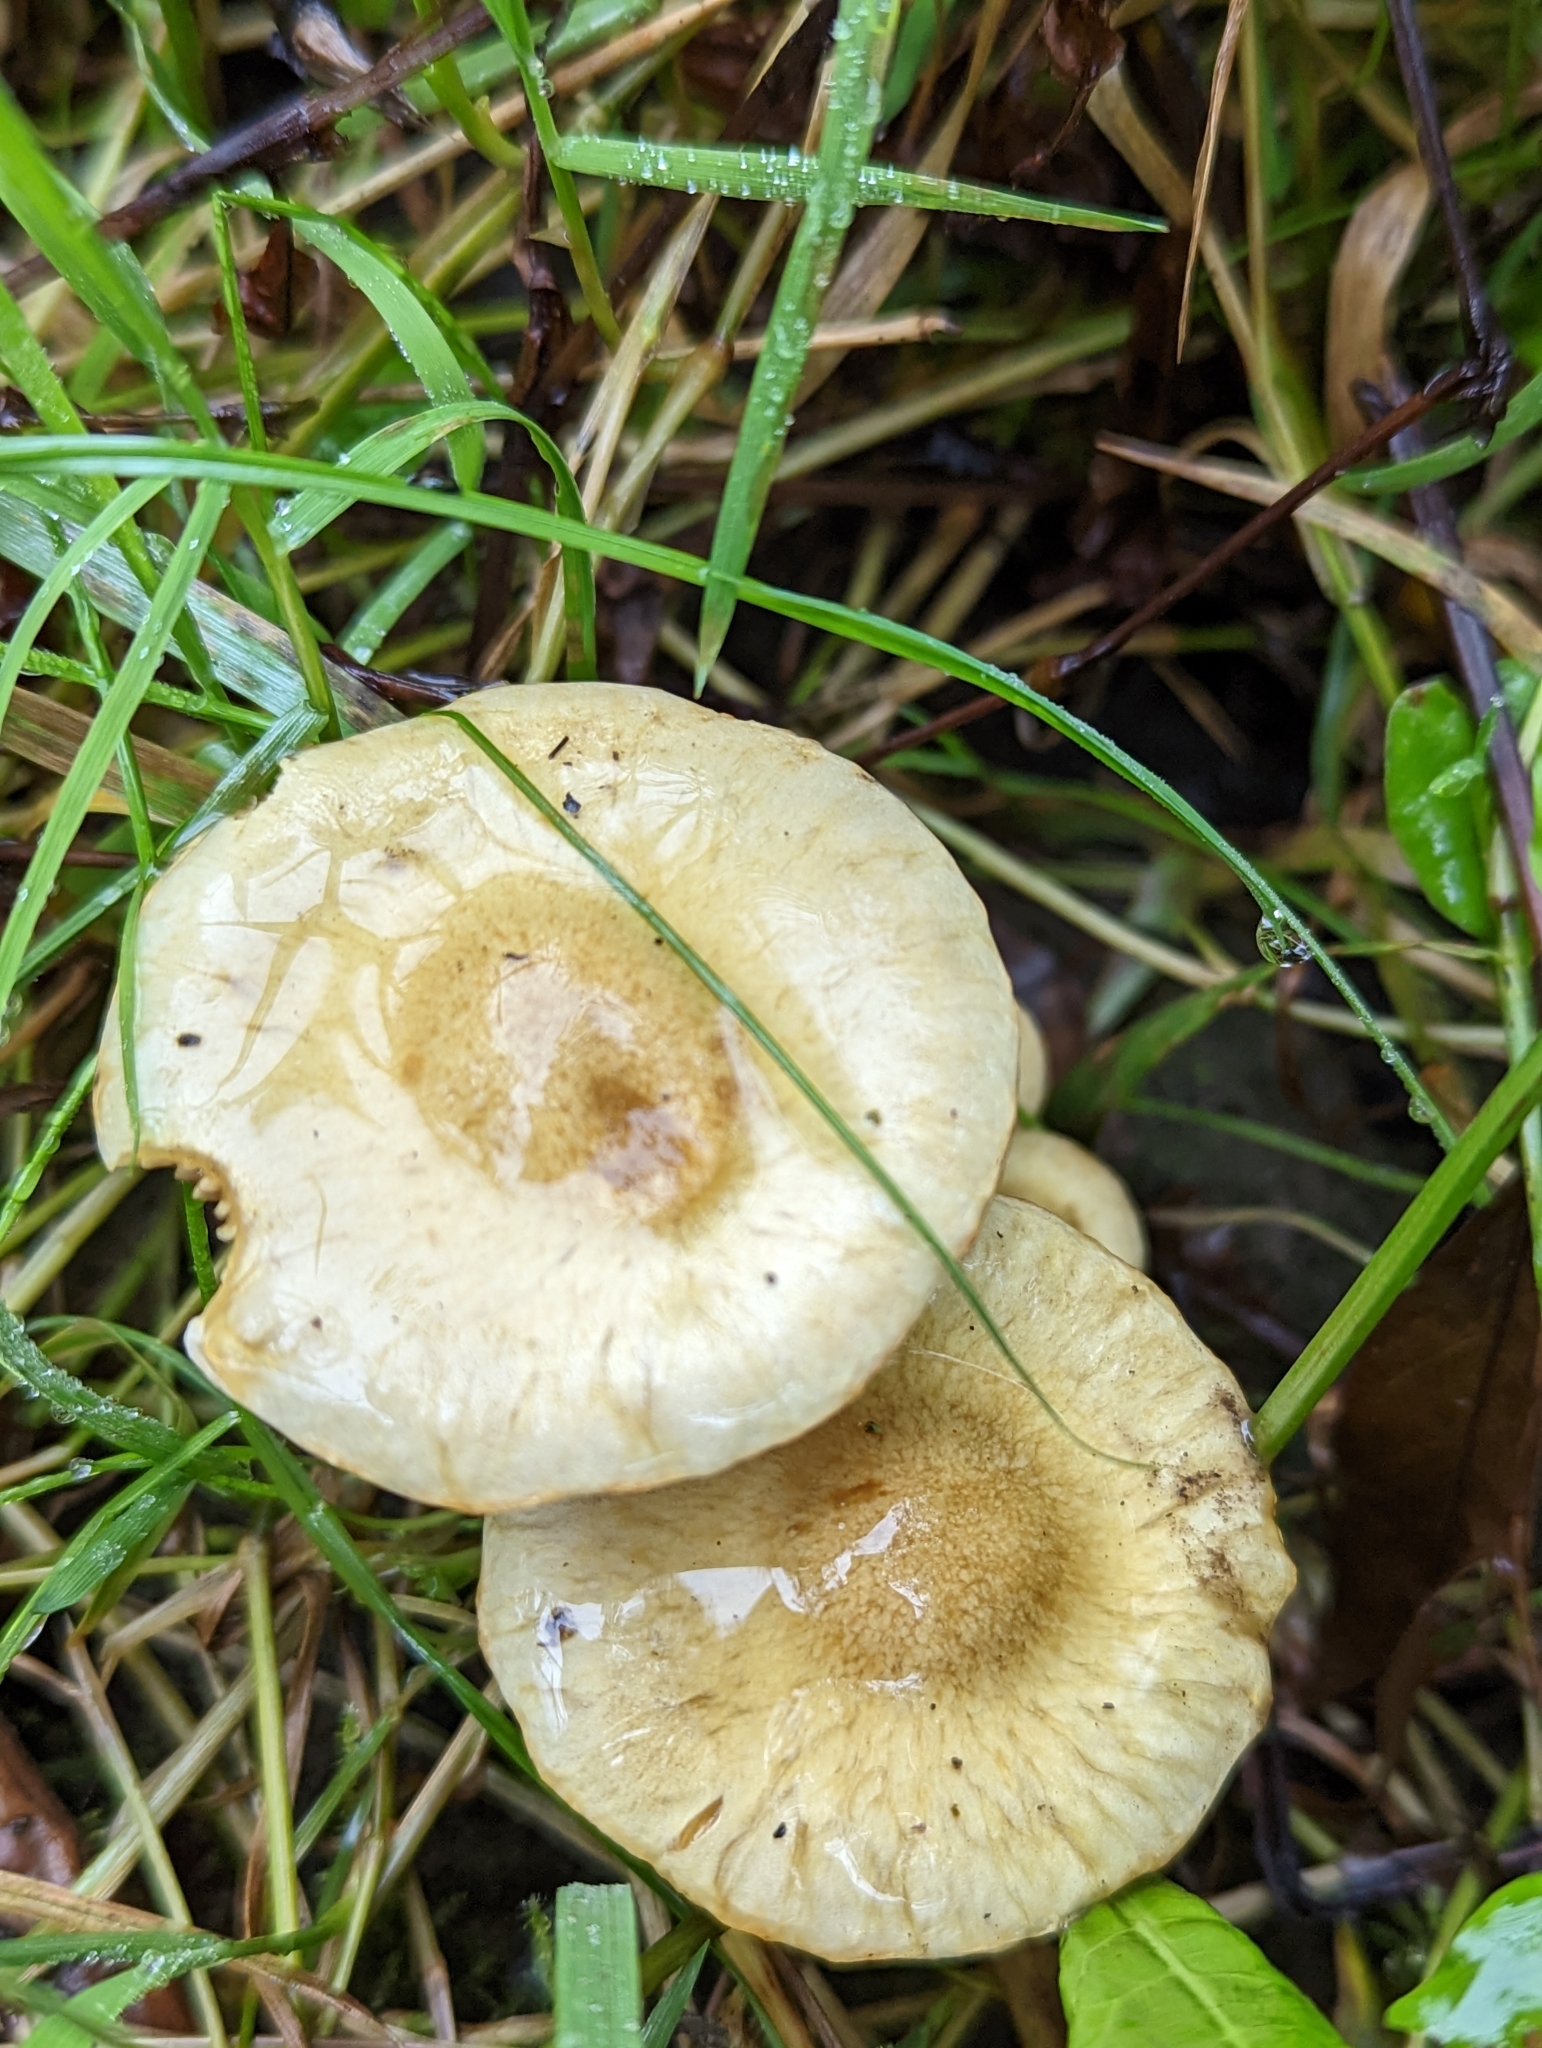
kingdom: Fungi
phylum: Basidiomycota
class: Agaricomycetes
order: Agaricales
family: Strophariaceae
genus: Pholiota
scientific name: Pholiota gummosa
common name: Sticky scalycap
